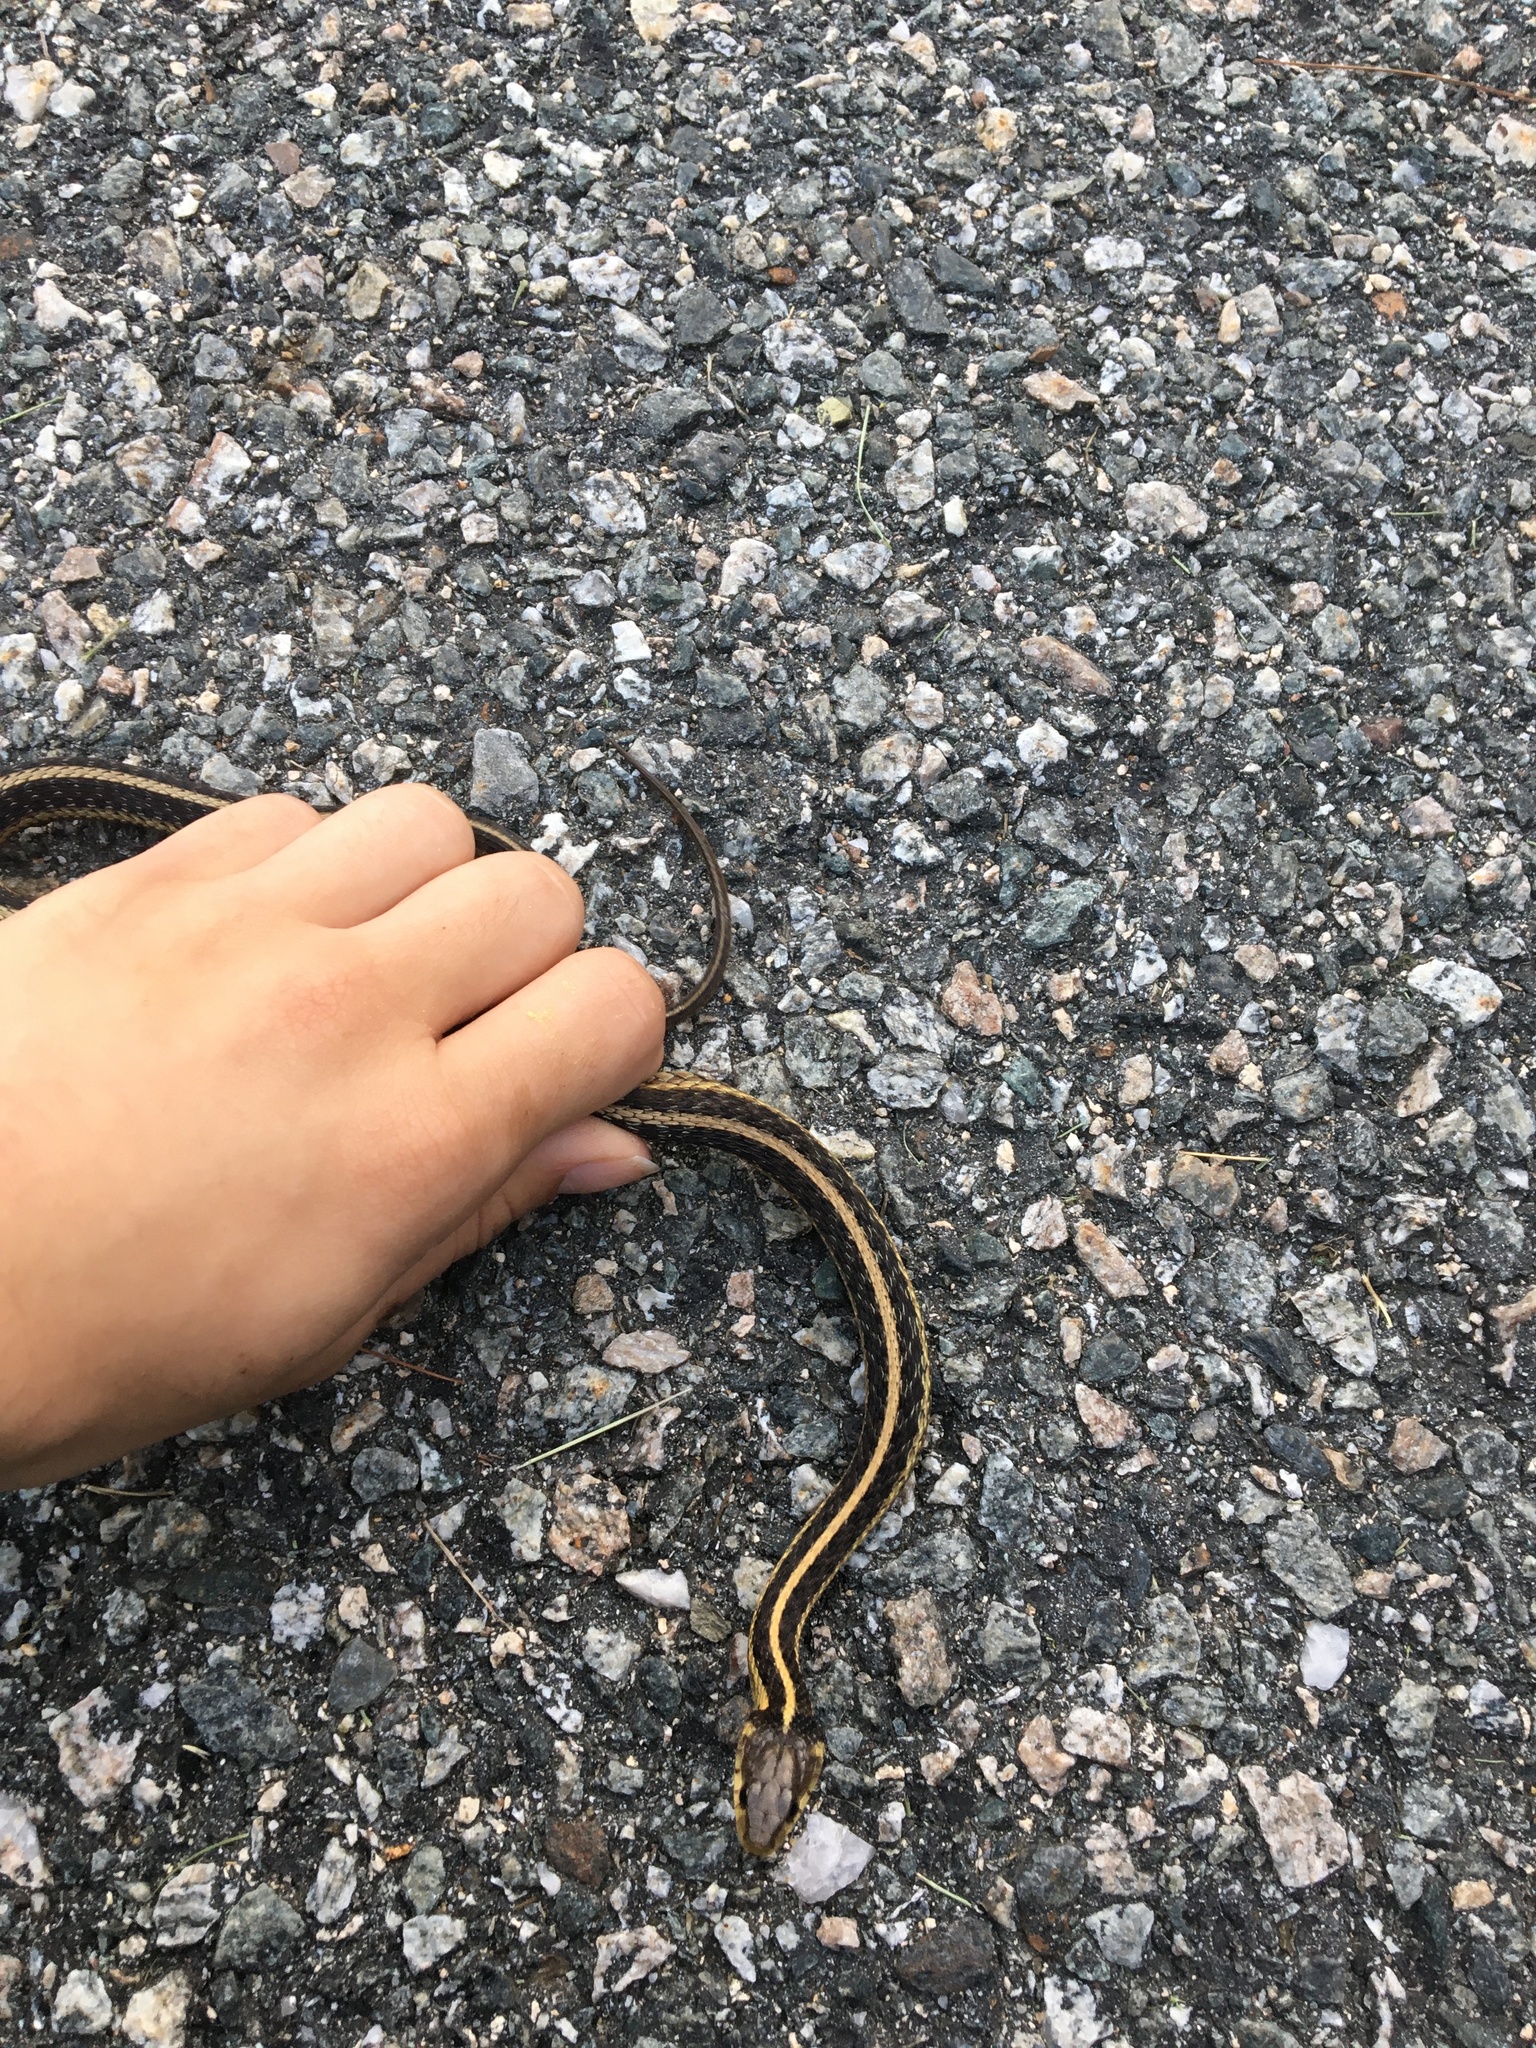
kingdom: Animalia
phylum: Chordata
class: Squamata
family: Colubridae
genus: Thamnophis
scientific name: Thamnophis sirtalis
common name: Common garter snake
